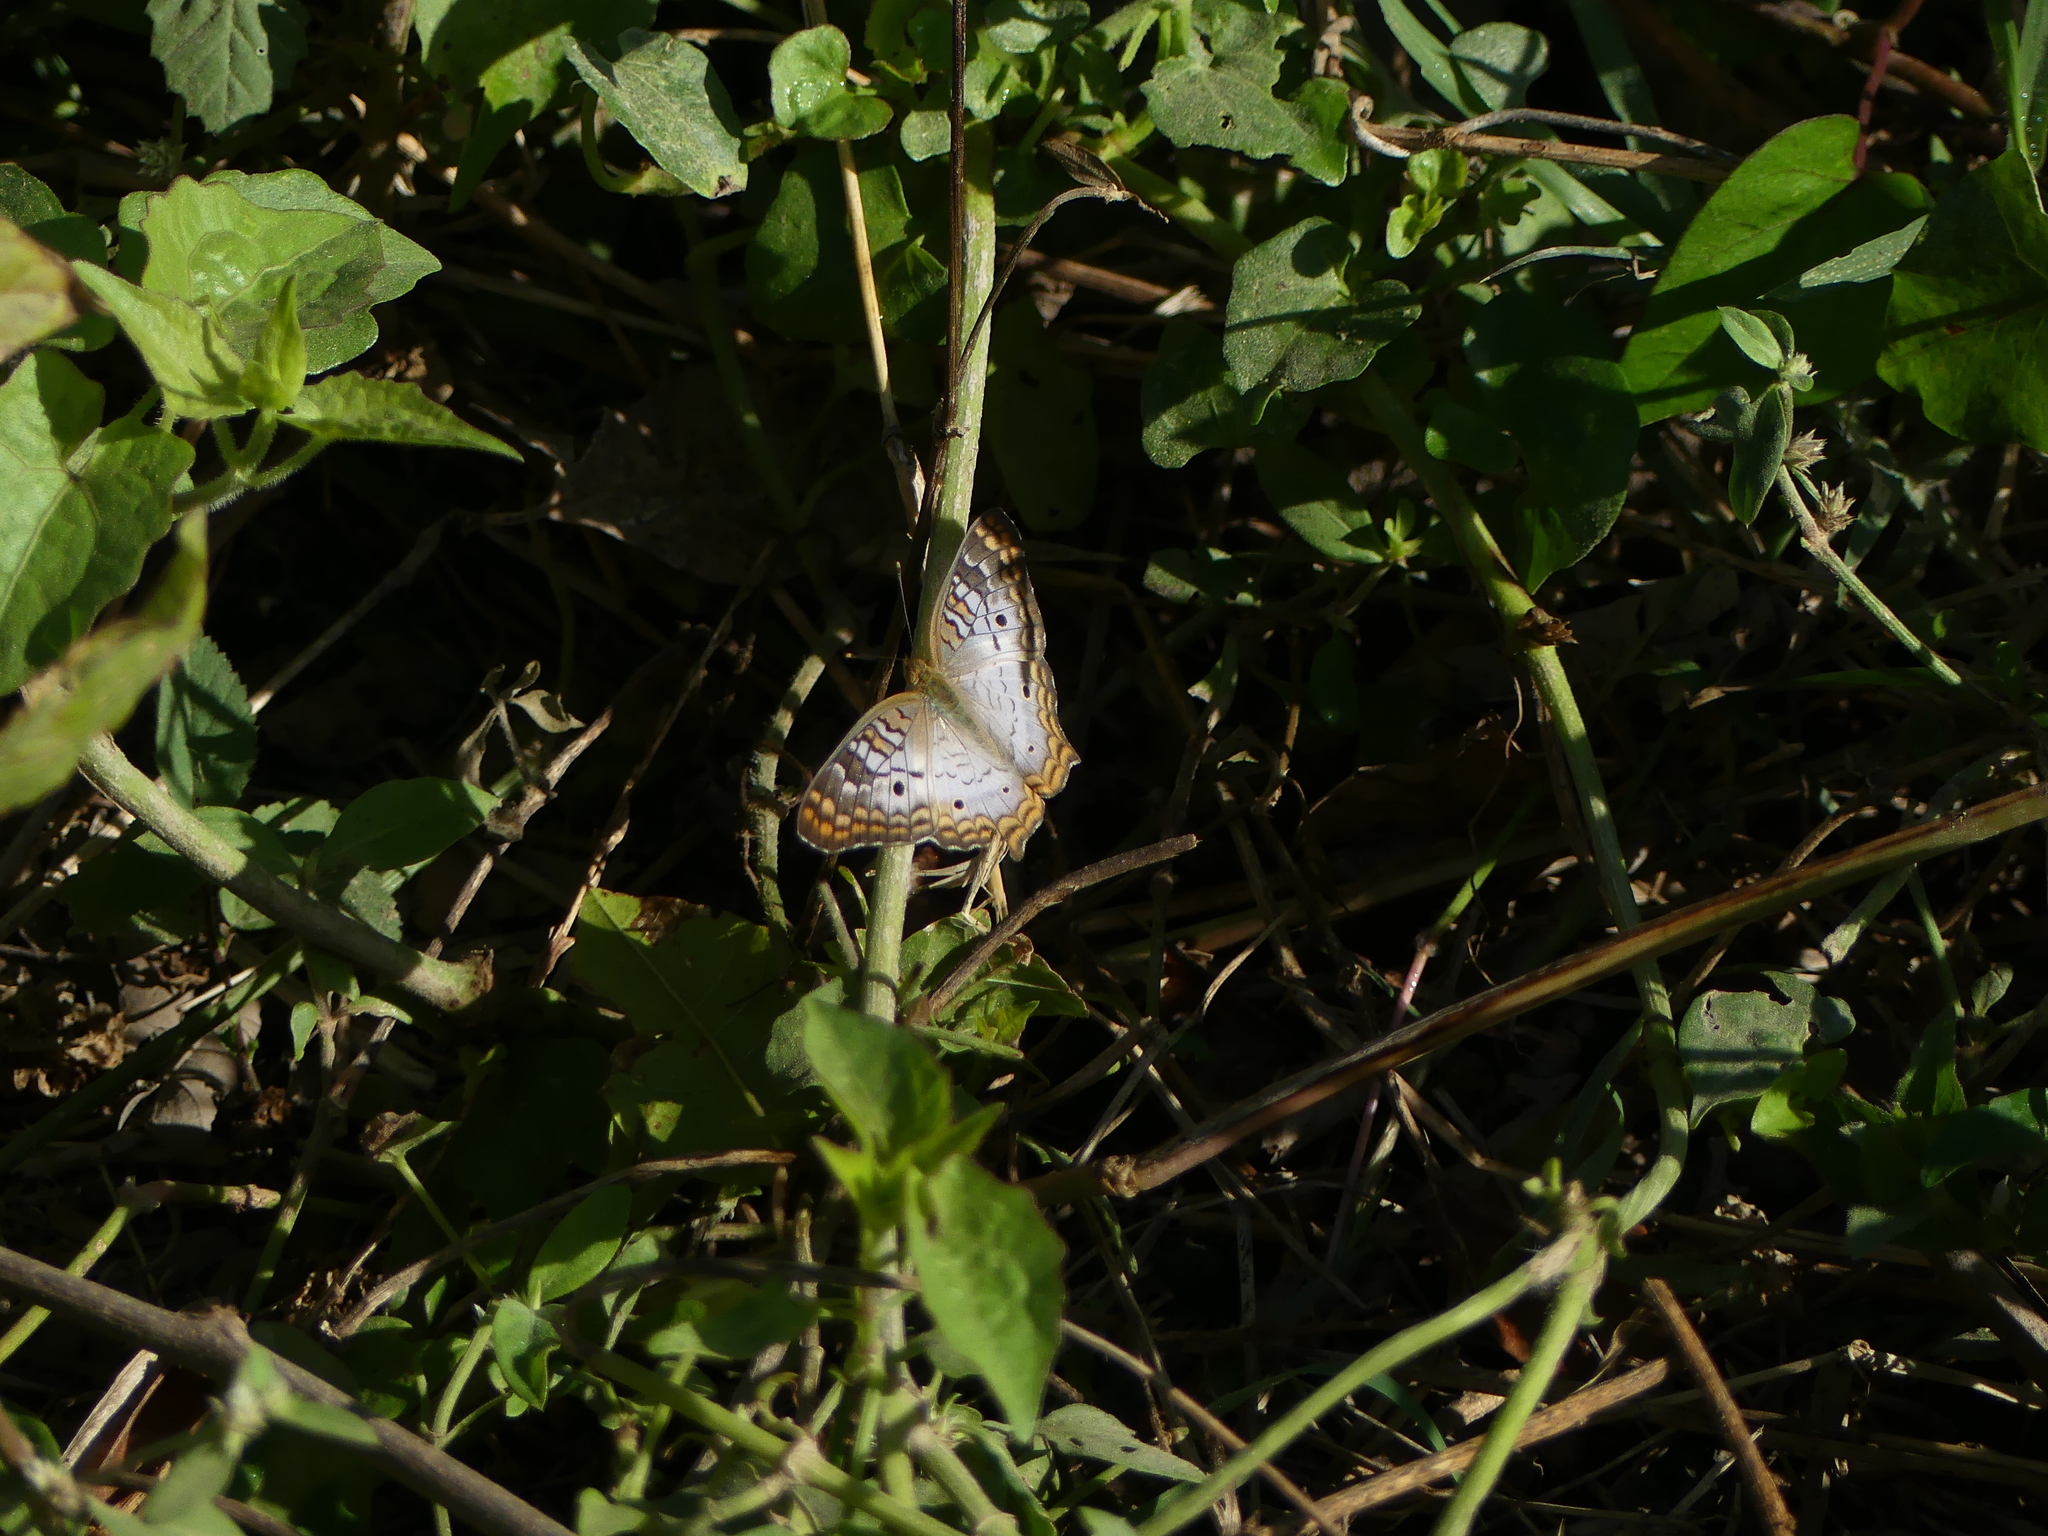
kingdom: Animalia
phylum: Arthropoda
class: Insecta
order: Lepidoptera
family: Nymphalidae
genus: Anartia
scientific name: Anartia jatrophae
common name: White peacock
